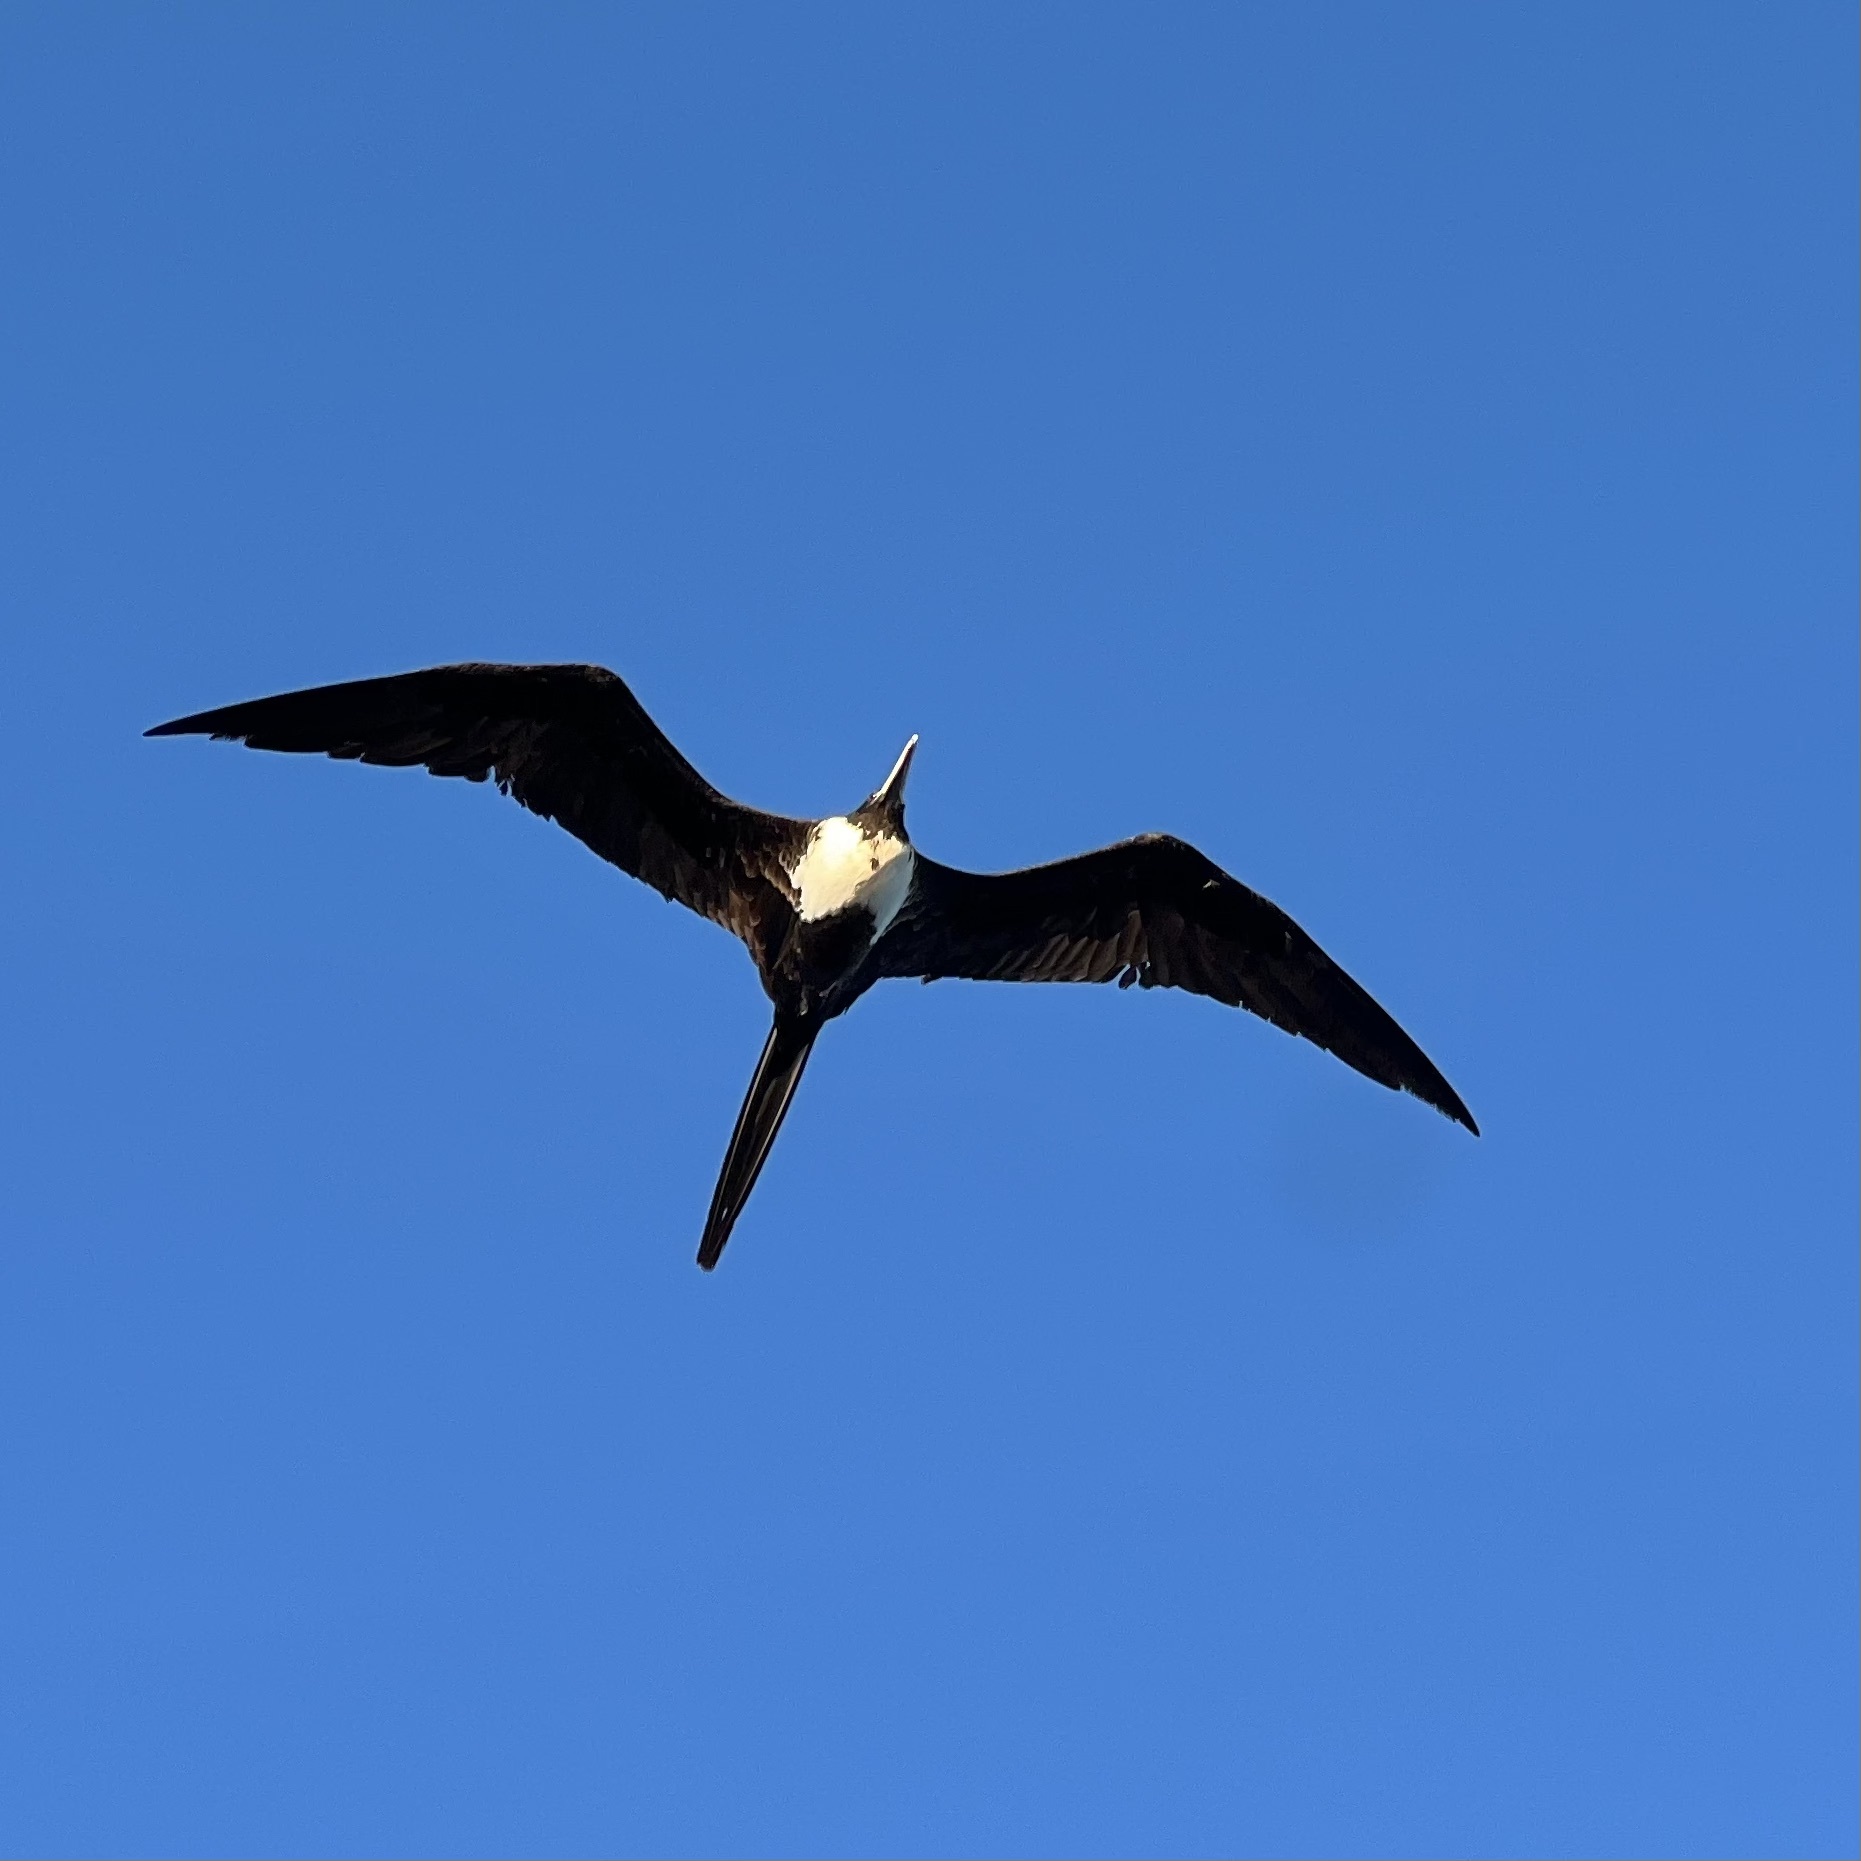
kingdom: Animalia
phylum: Chordata
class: Aves
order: Suliformes
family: Fregatidae
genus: Fregata
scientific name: Fregata magnificens
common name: Magnificent frigatebird
